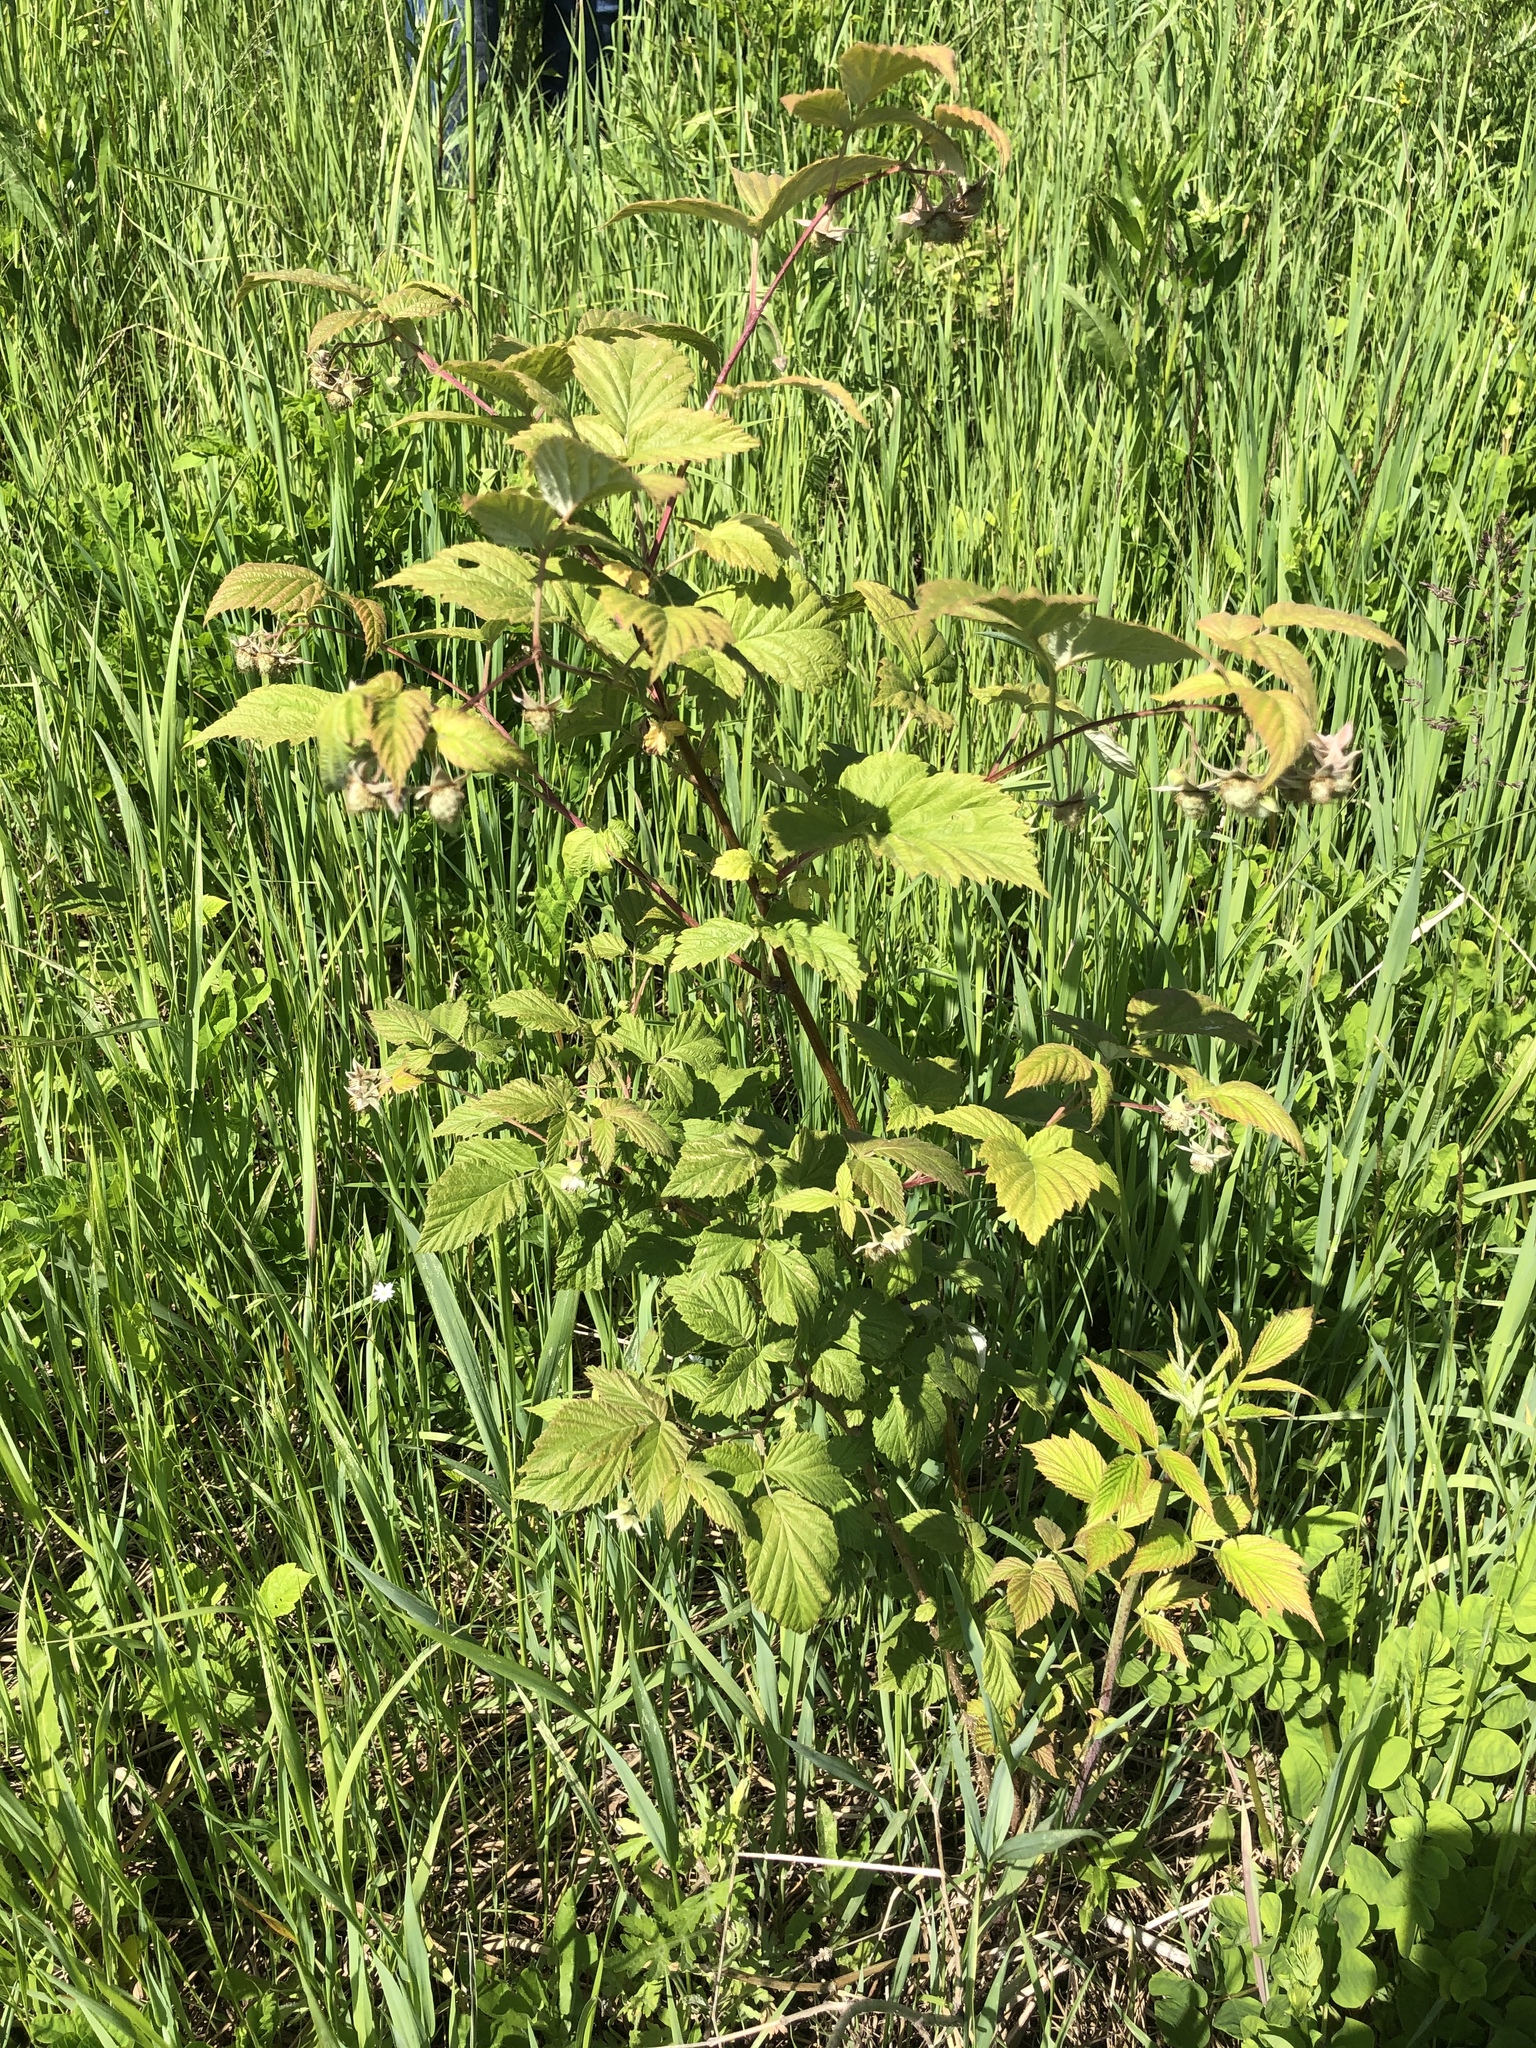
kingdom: Plantae
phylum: Tracheophyta
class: Magnoliopsida
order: Rosales
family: Rosaceae
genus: Rubus
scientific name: Rubus idaeus
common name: Raspberry
